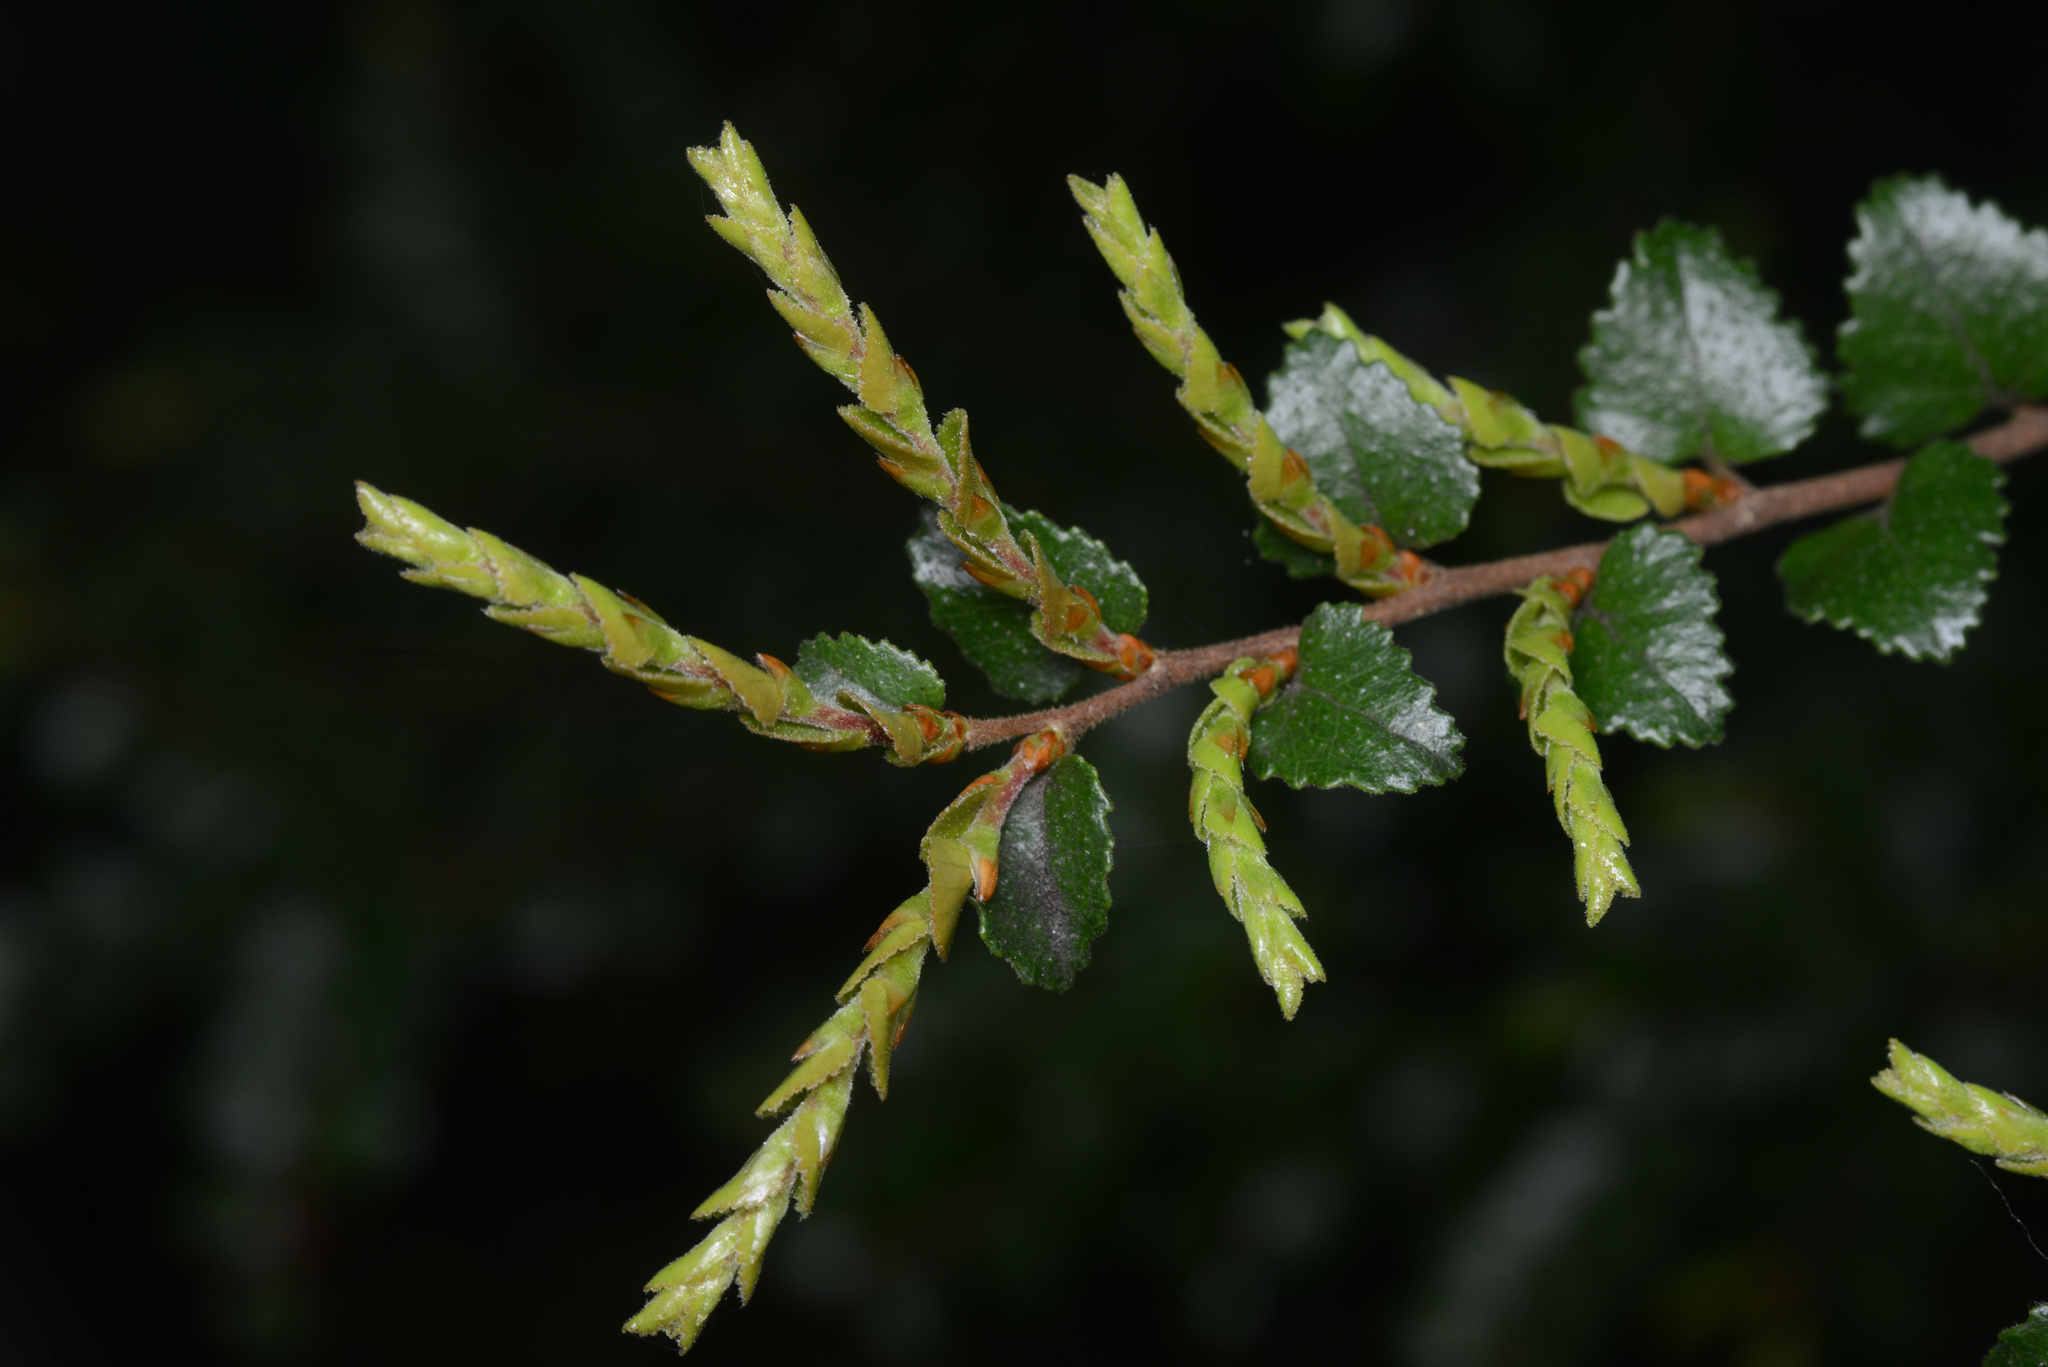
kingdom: Plantae
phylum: Tracheophyta
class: Magnoliopsida
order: Fagales
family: Nothofagaceae
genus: Nothofagus
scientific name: Nothofagus cunninghamii
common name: Myrtle beech
